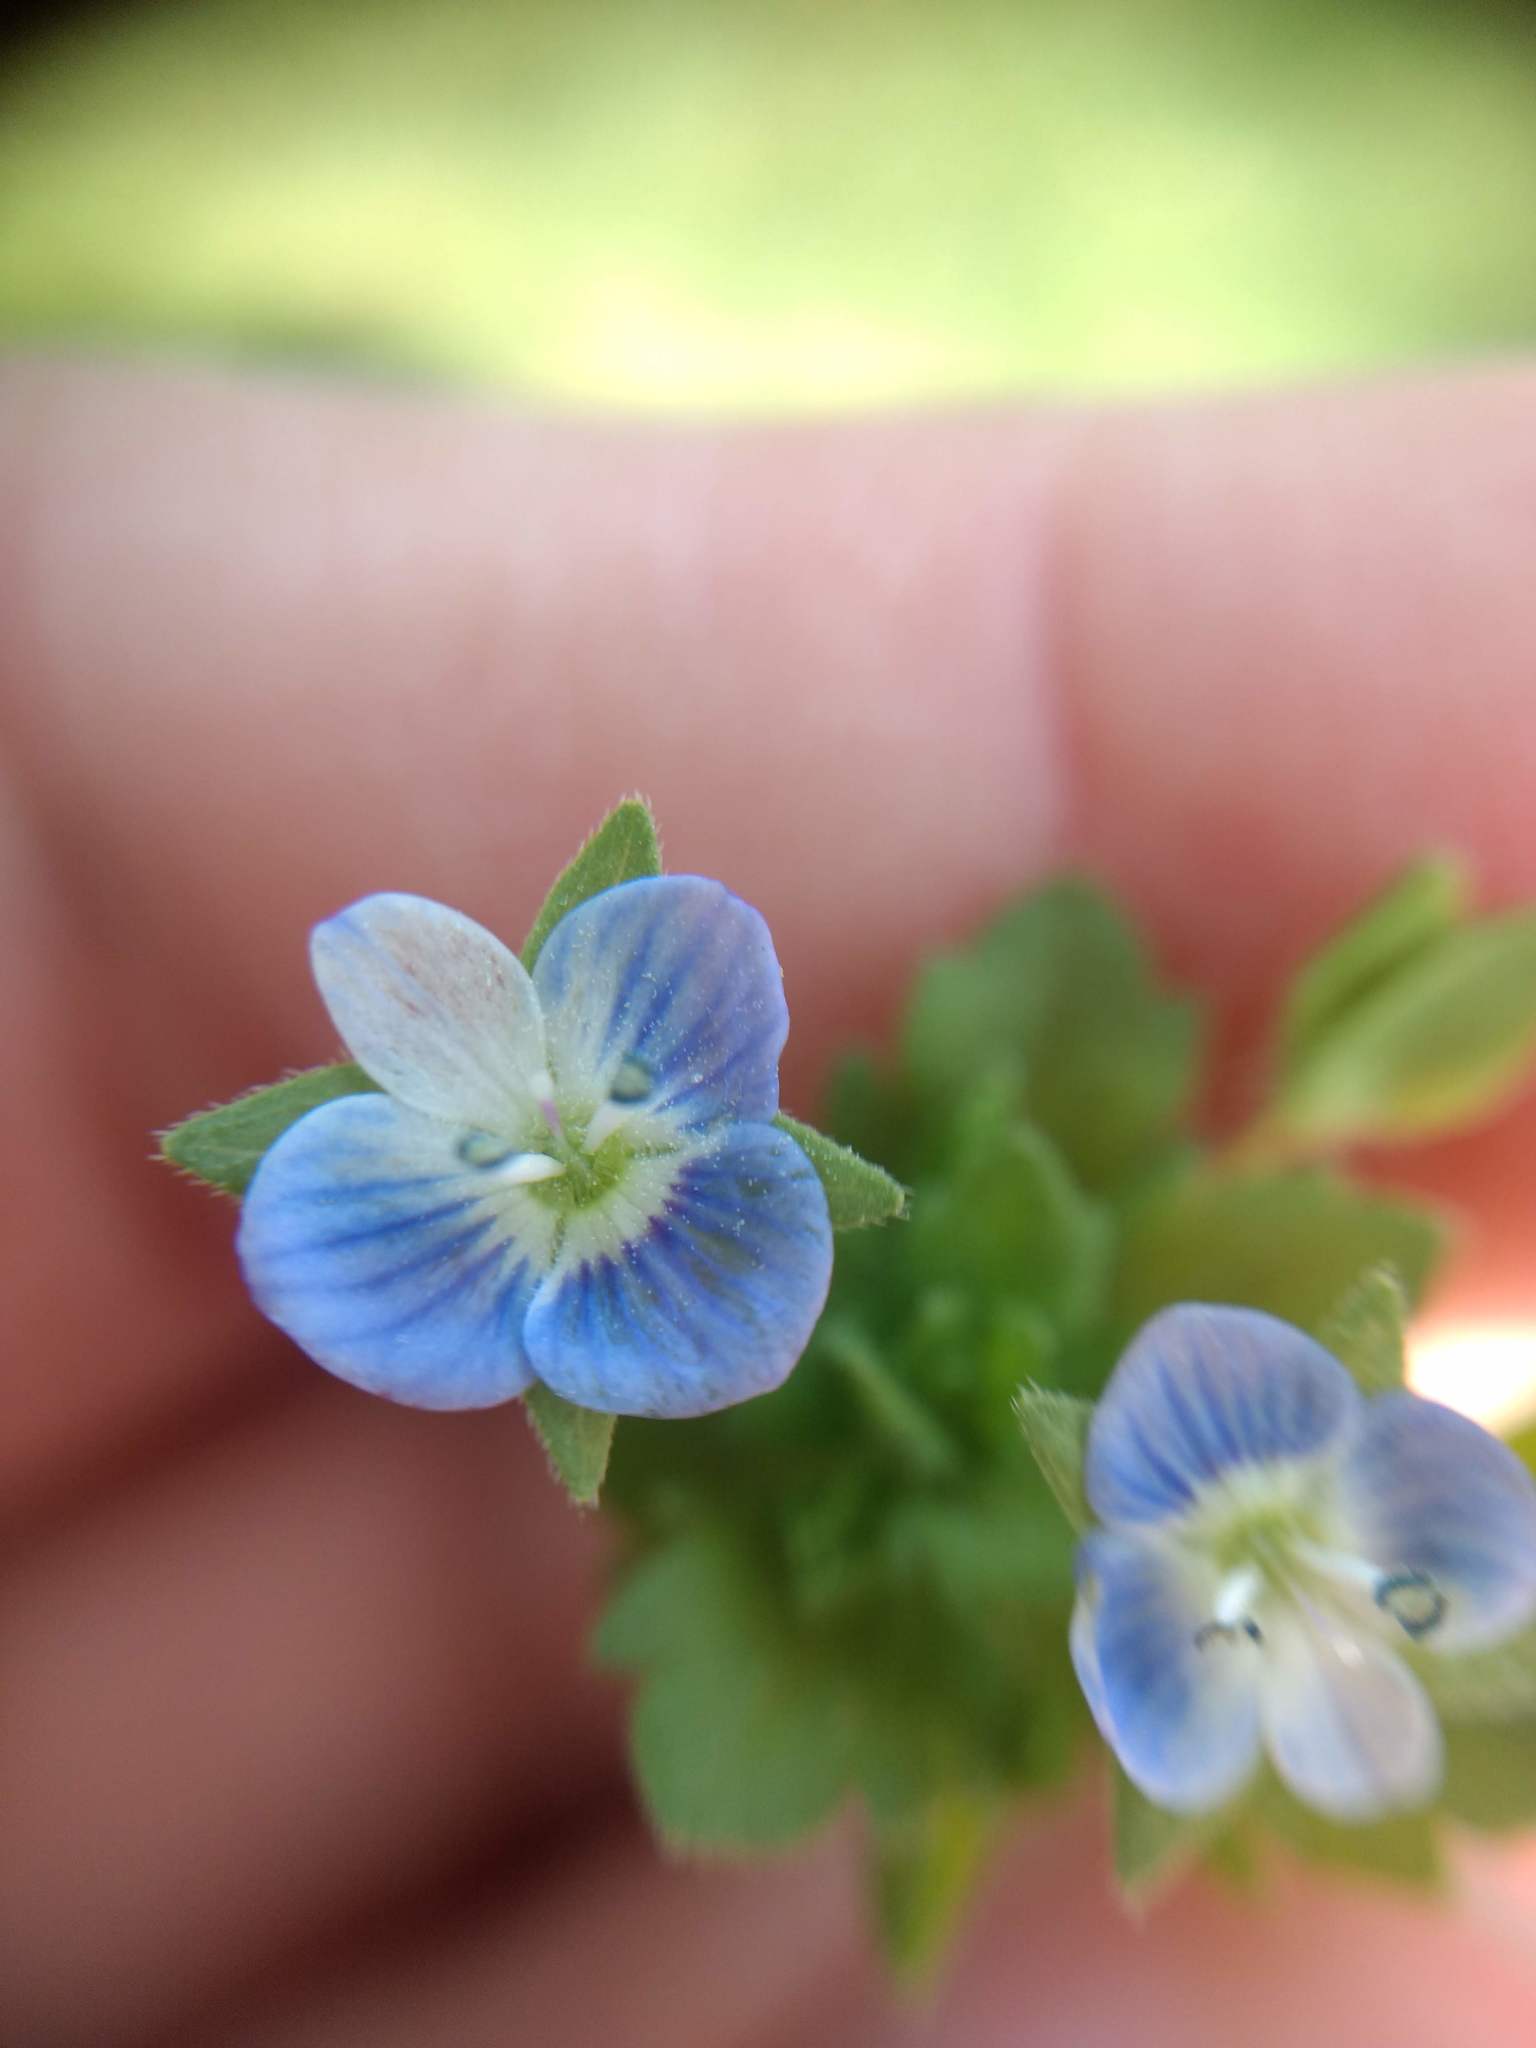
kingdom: Plantae
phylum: Tracheophyta
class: Magnoliopsida
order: Lamiales
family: Plantaginaceae
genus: Veronica
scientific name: Veronica persica
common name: Common field-speedwell
